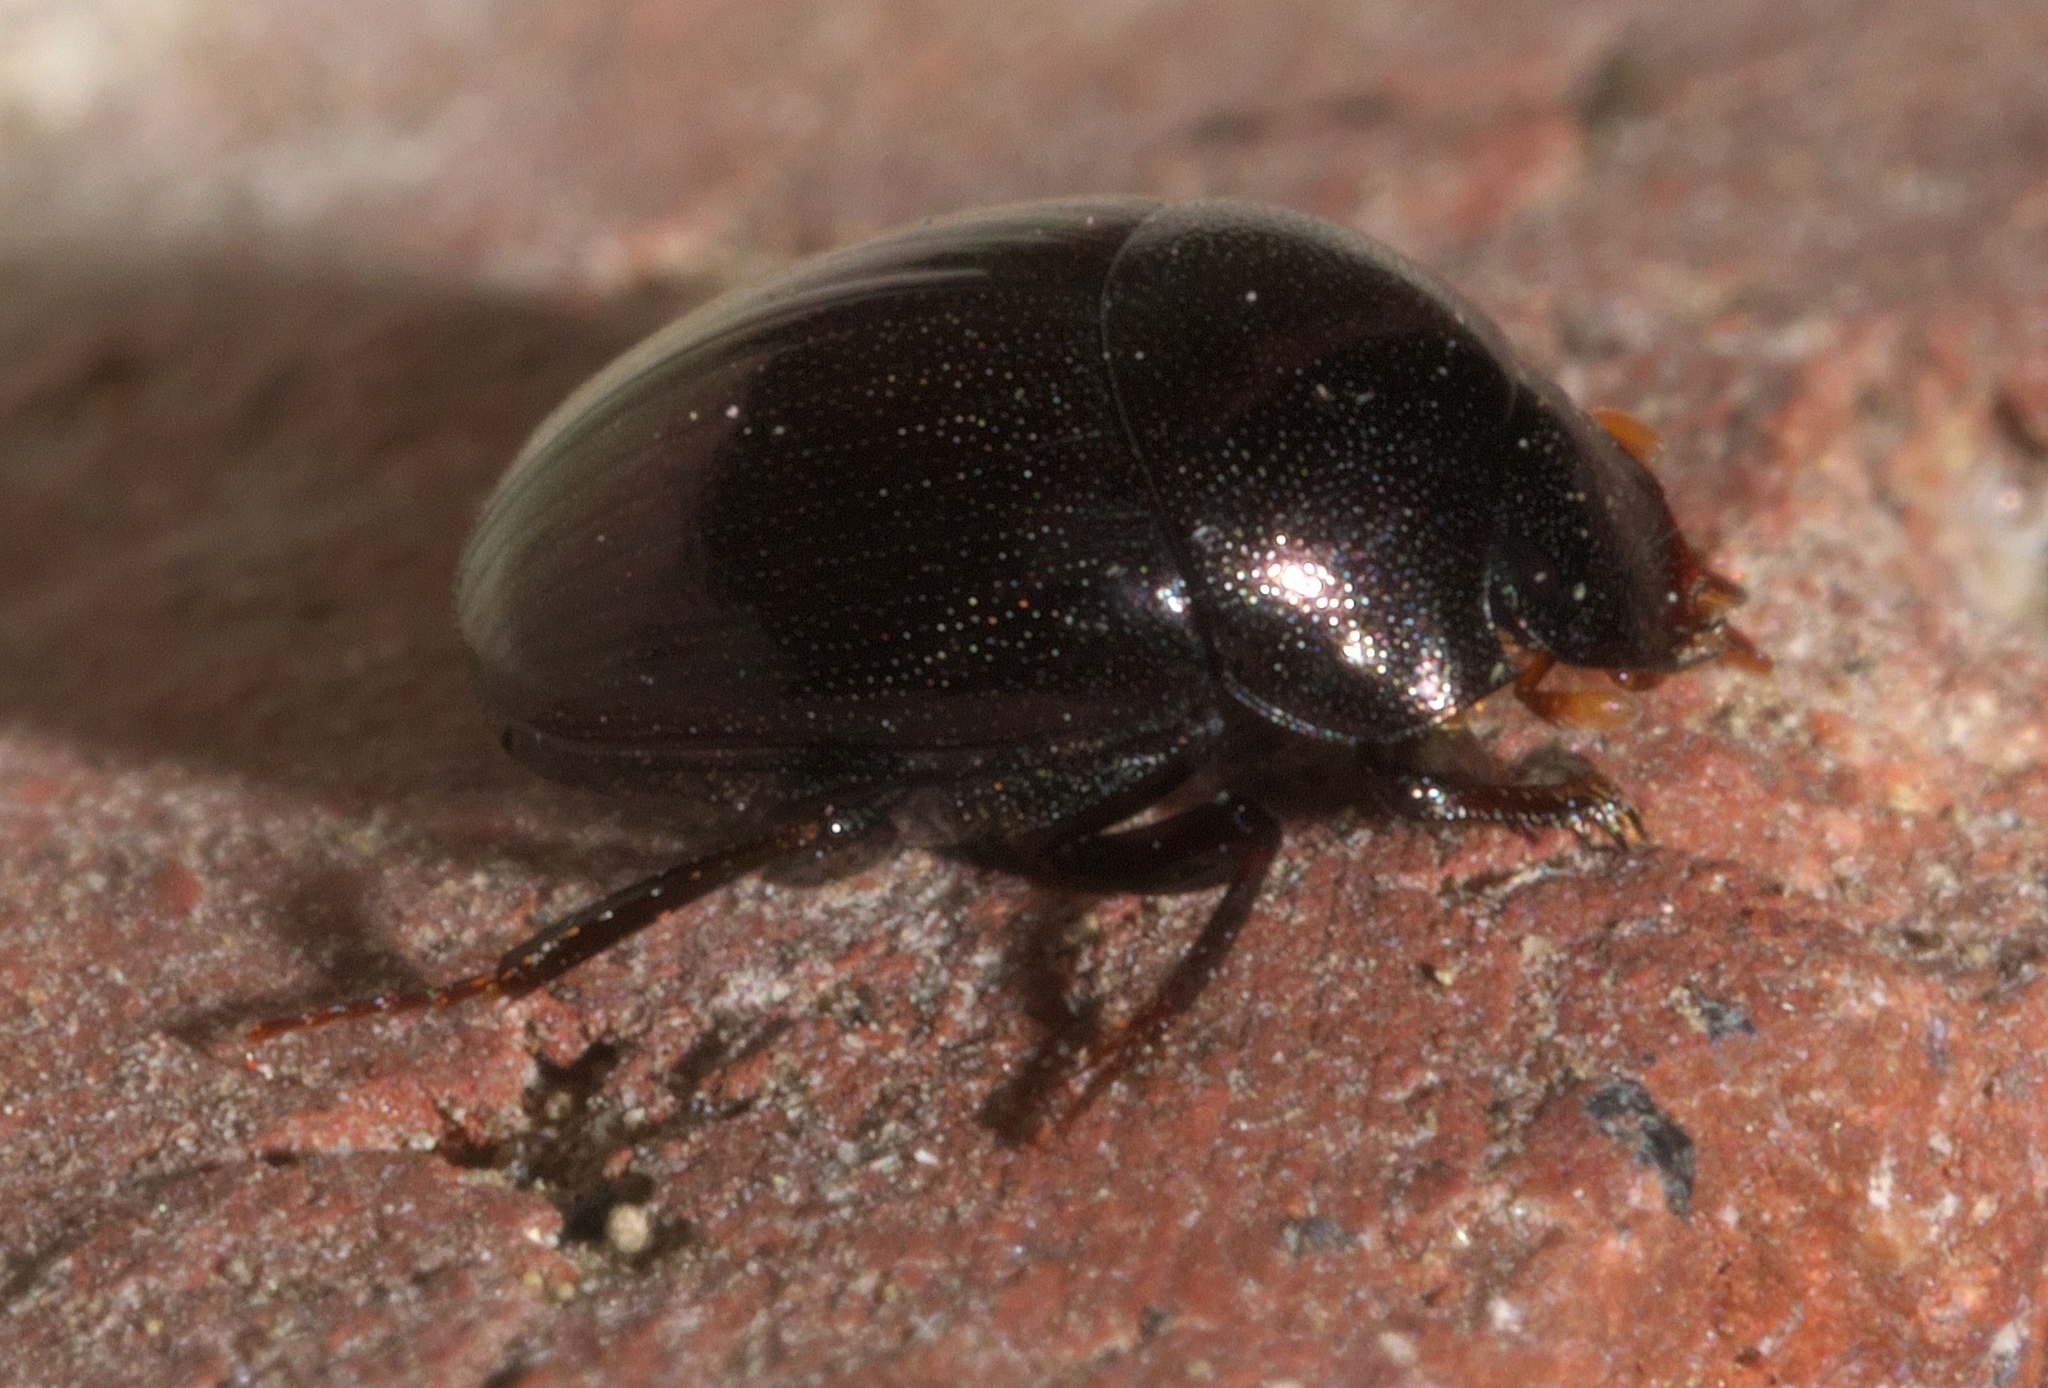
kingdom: Animalia
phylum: Arthropoda
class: Insecta
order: Coleoptera
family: Scarabaeidae
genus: Pseudocanthon
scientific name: Pseudocanthon perplexus
